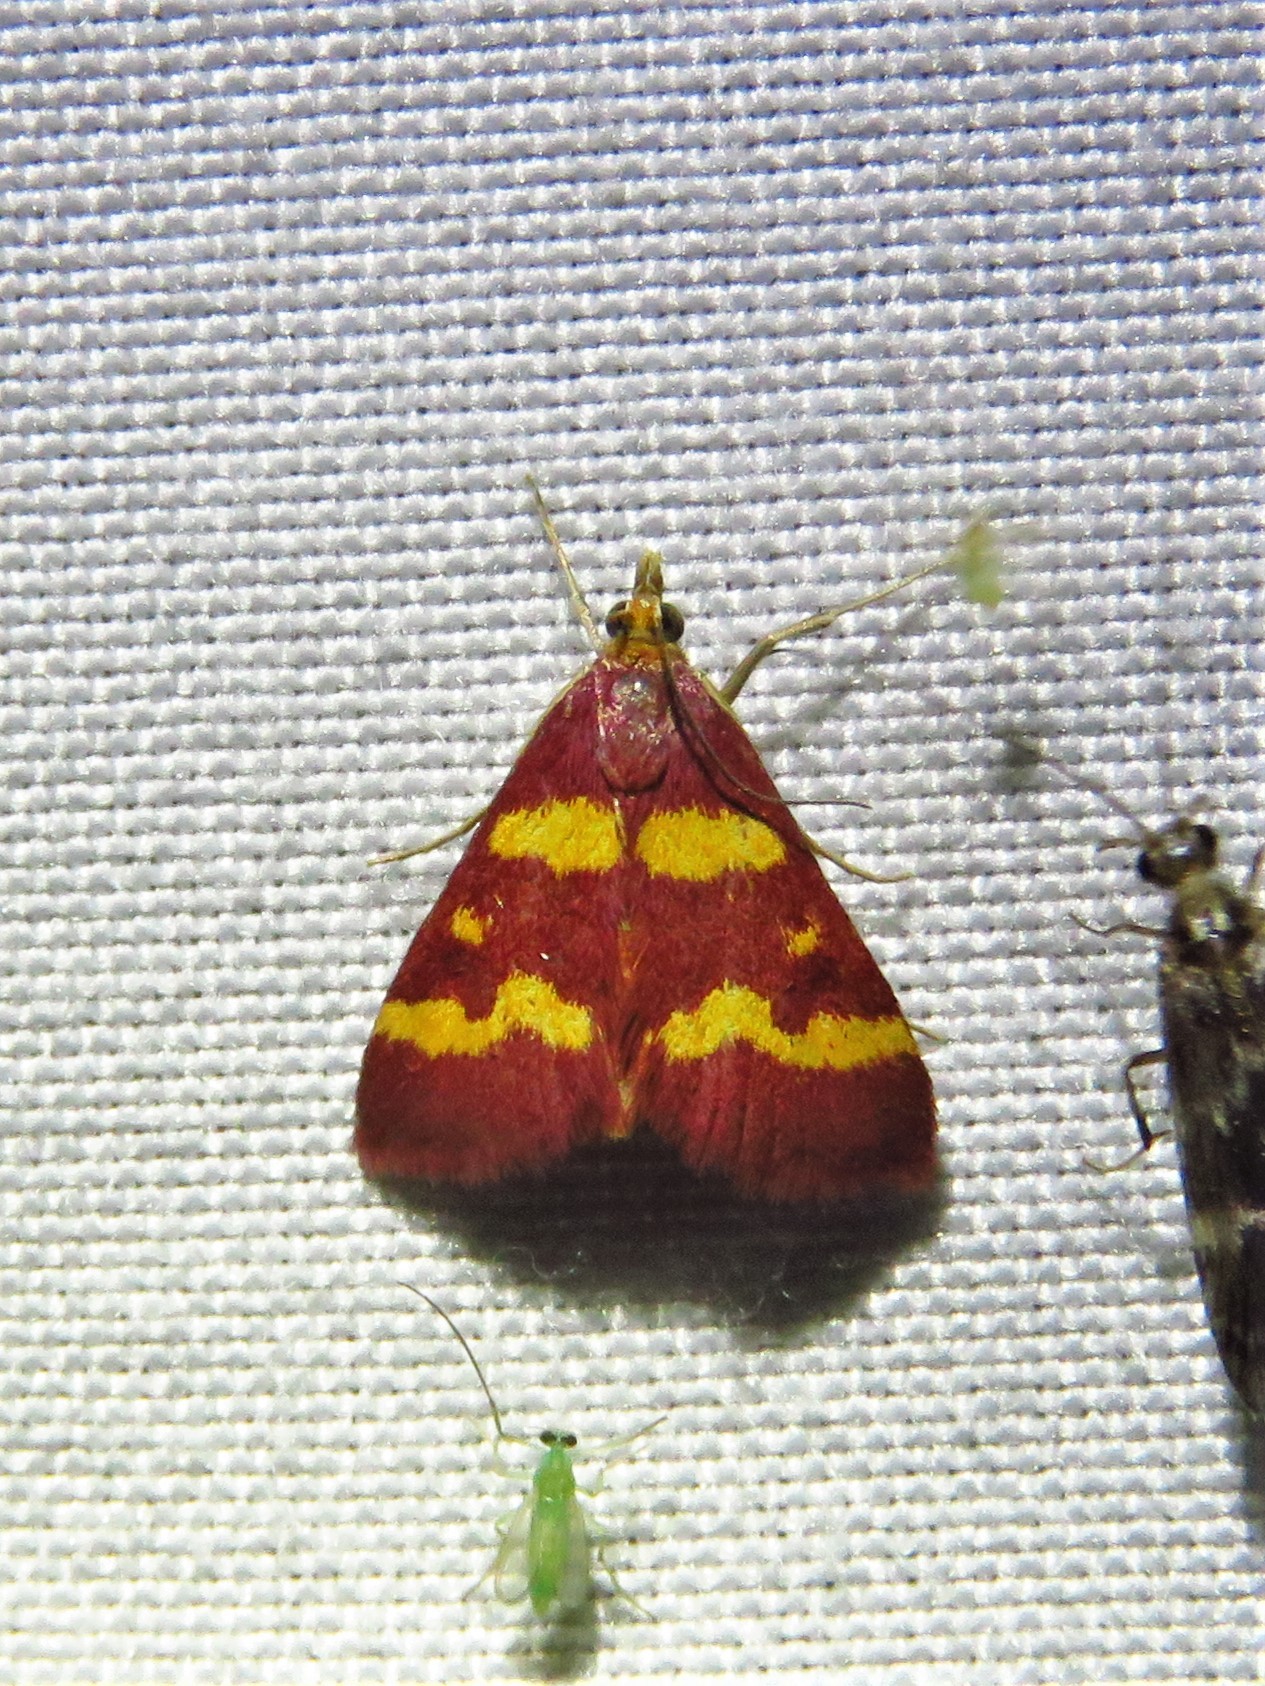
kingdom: Animalia
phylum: Arthropoda
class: Insecta
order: Lepidoptera
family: Crambidae
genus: Pyrausta
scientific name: Pyrausta tyralis
